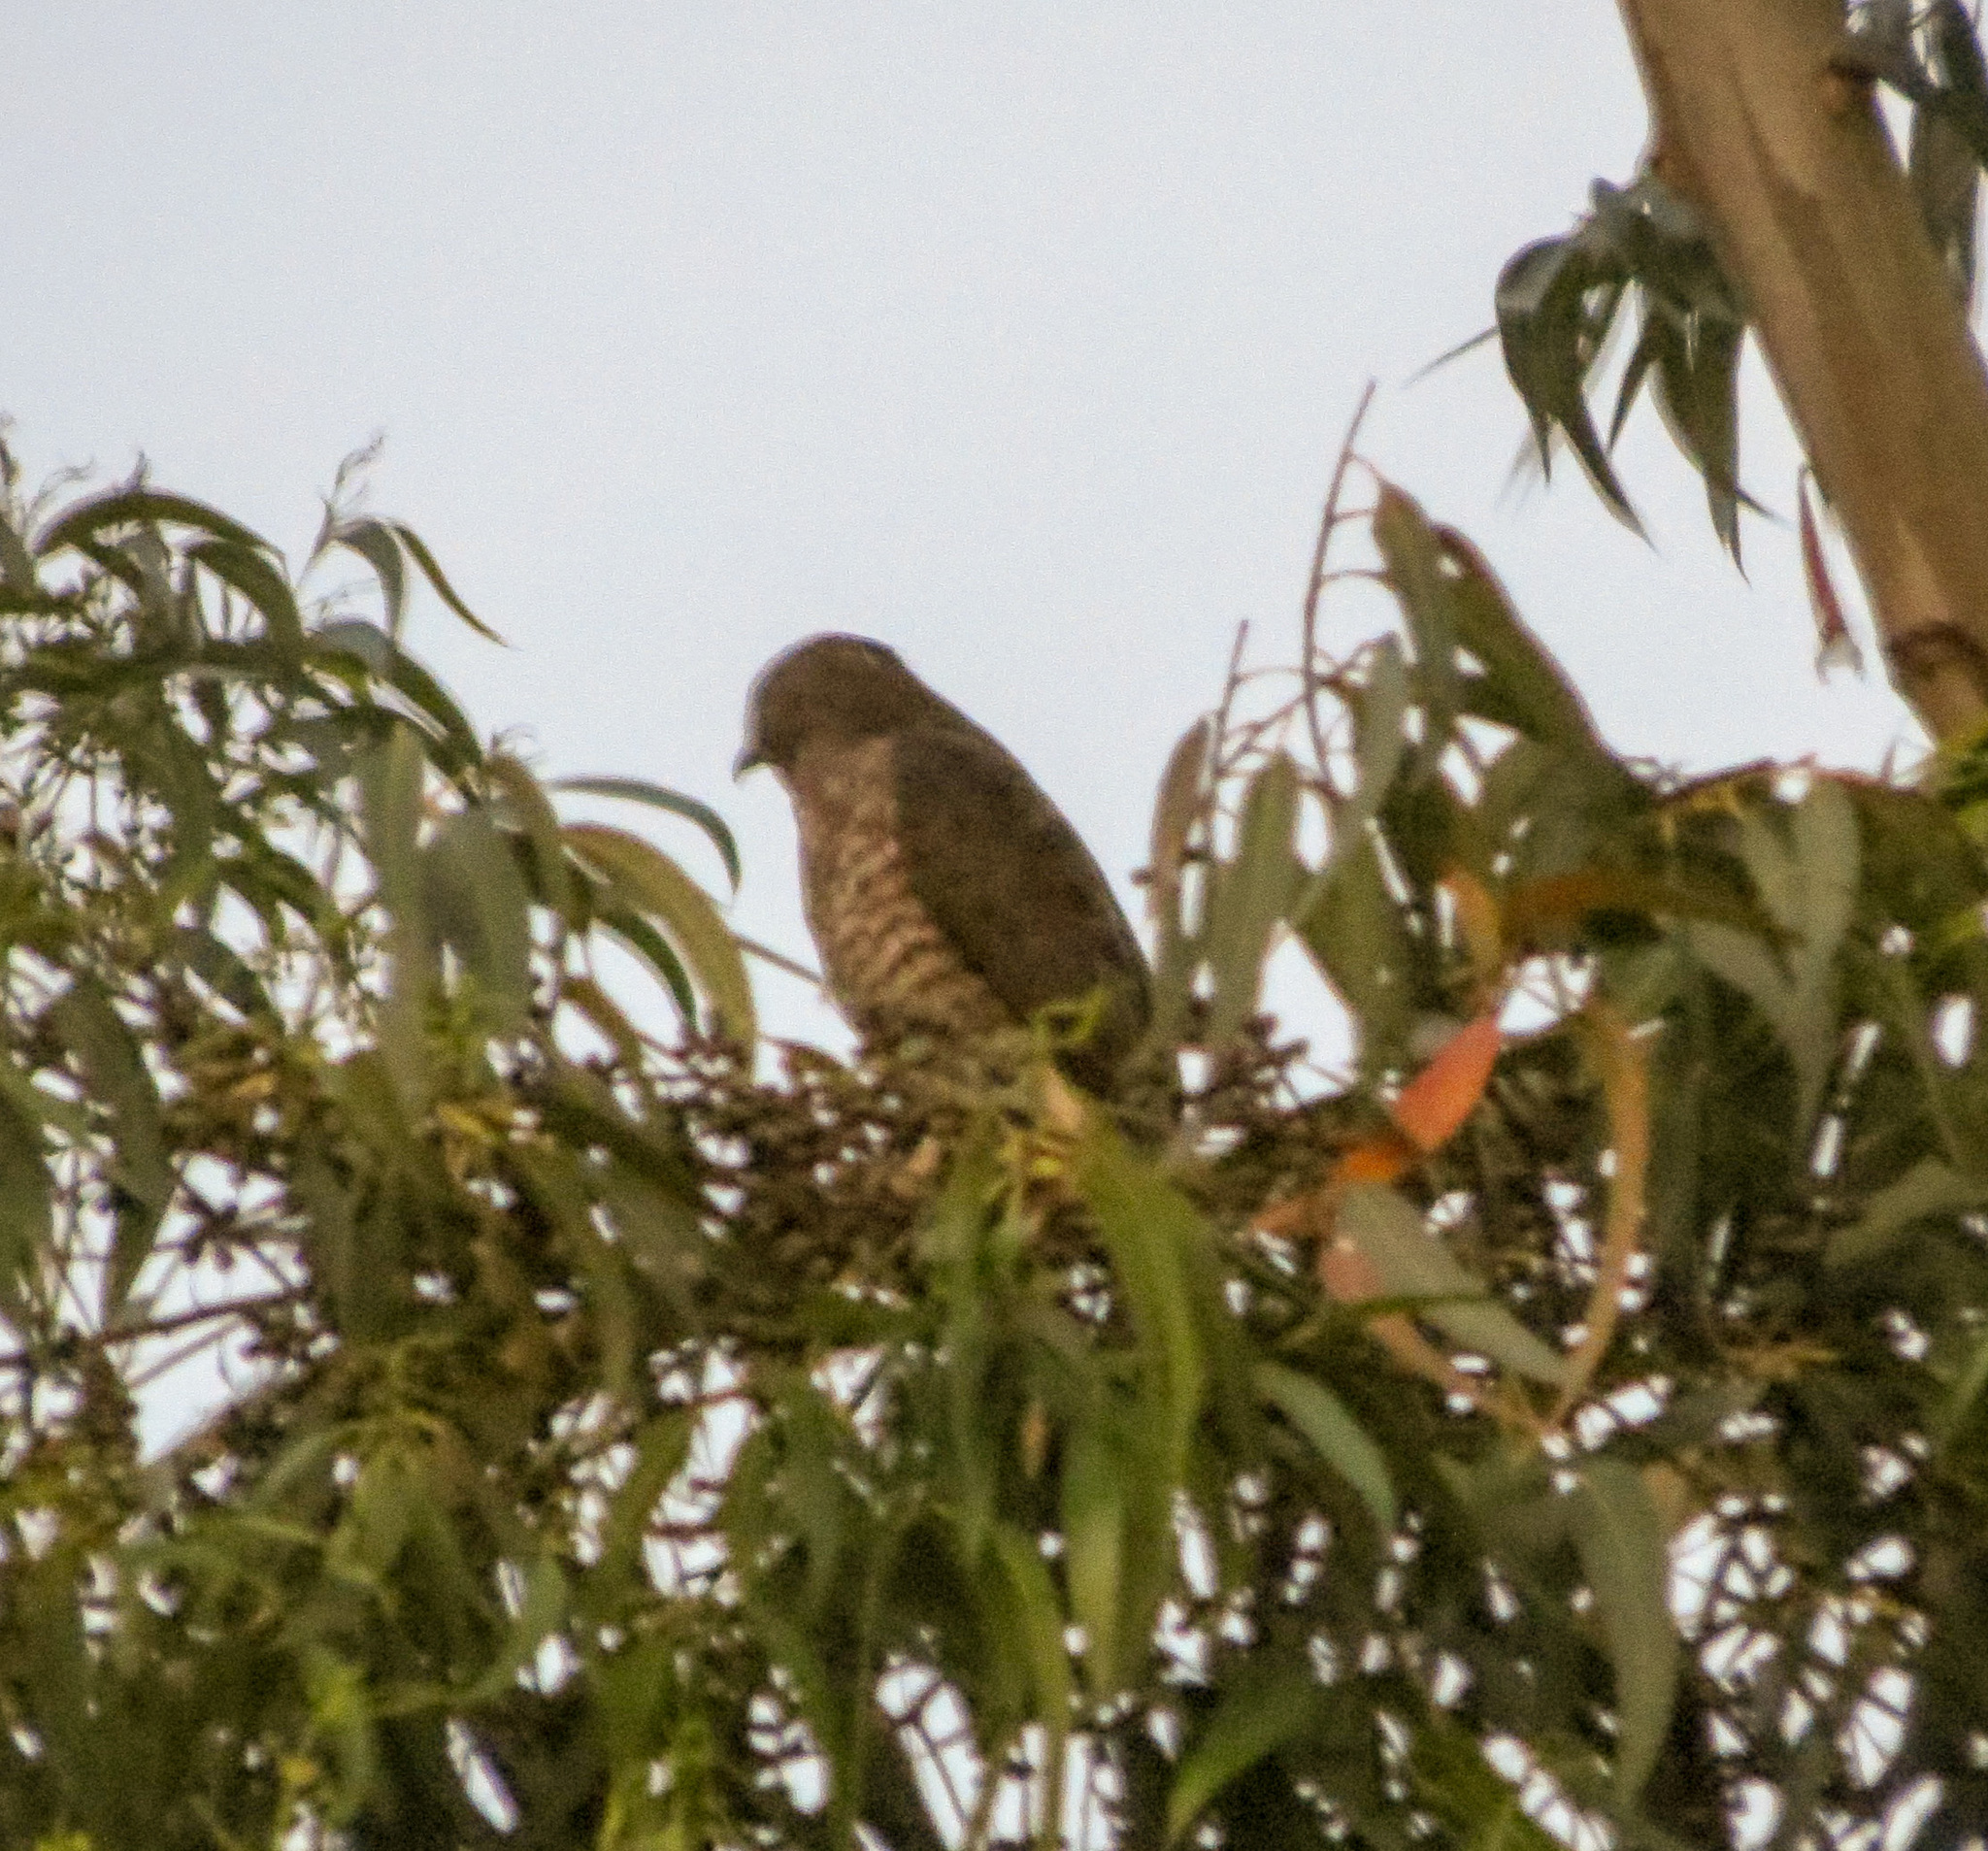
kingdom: Animalia
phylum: Chordata
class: Aves
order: Accipitriformes
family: Accipitridae
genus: Buteo
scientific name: Buteo platypterus
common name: Broad-winged hawk
